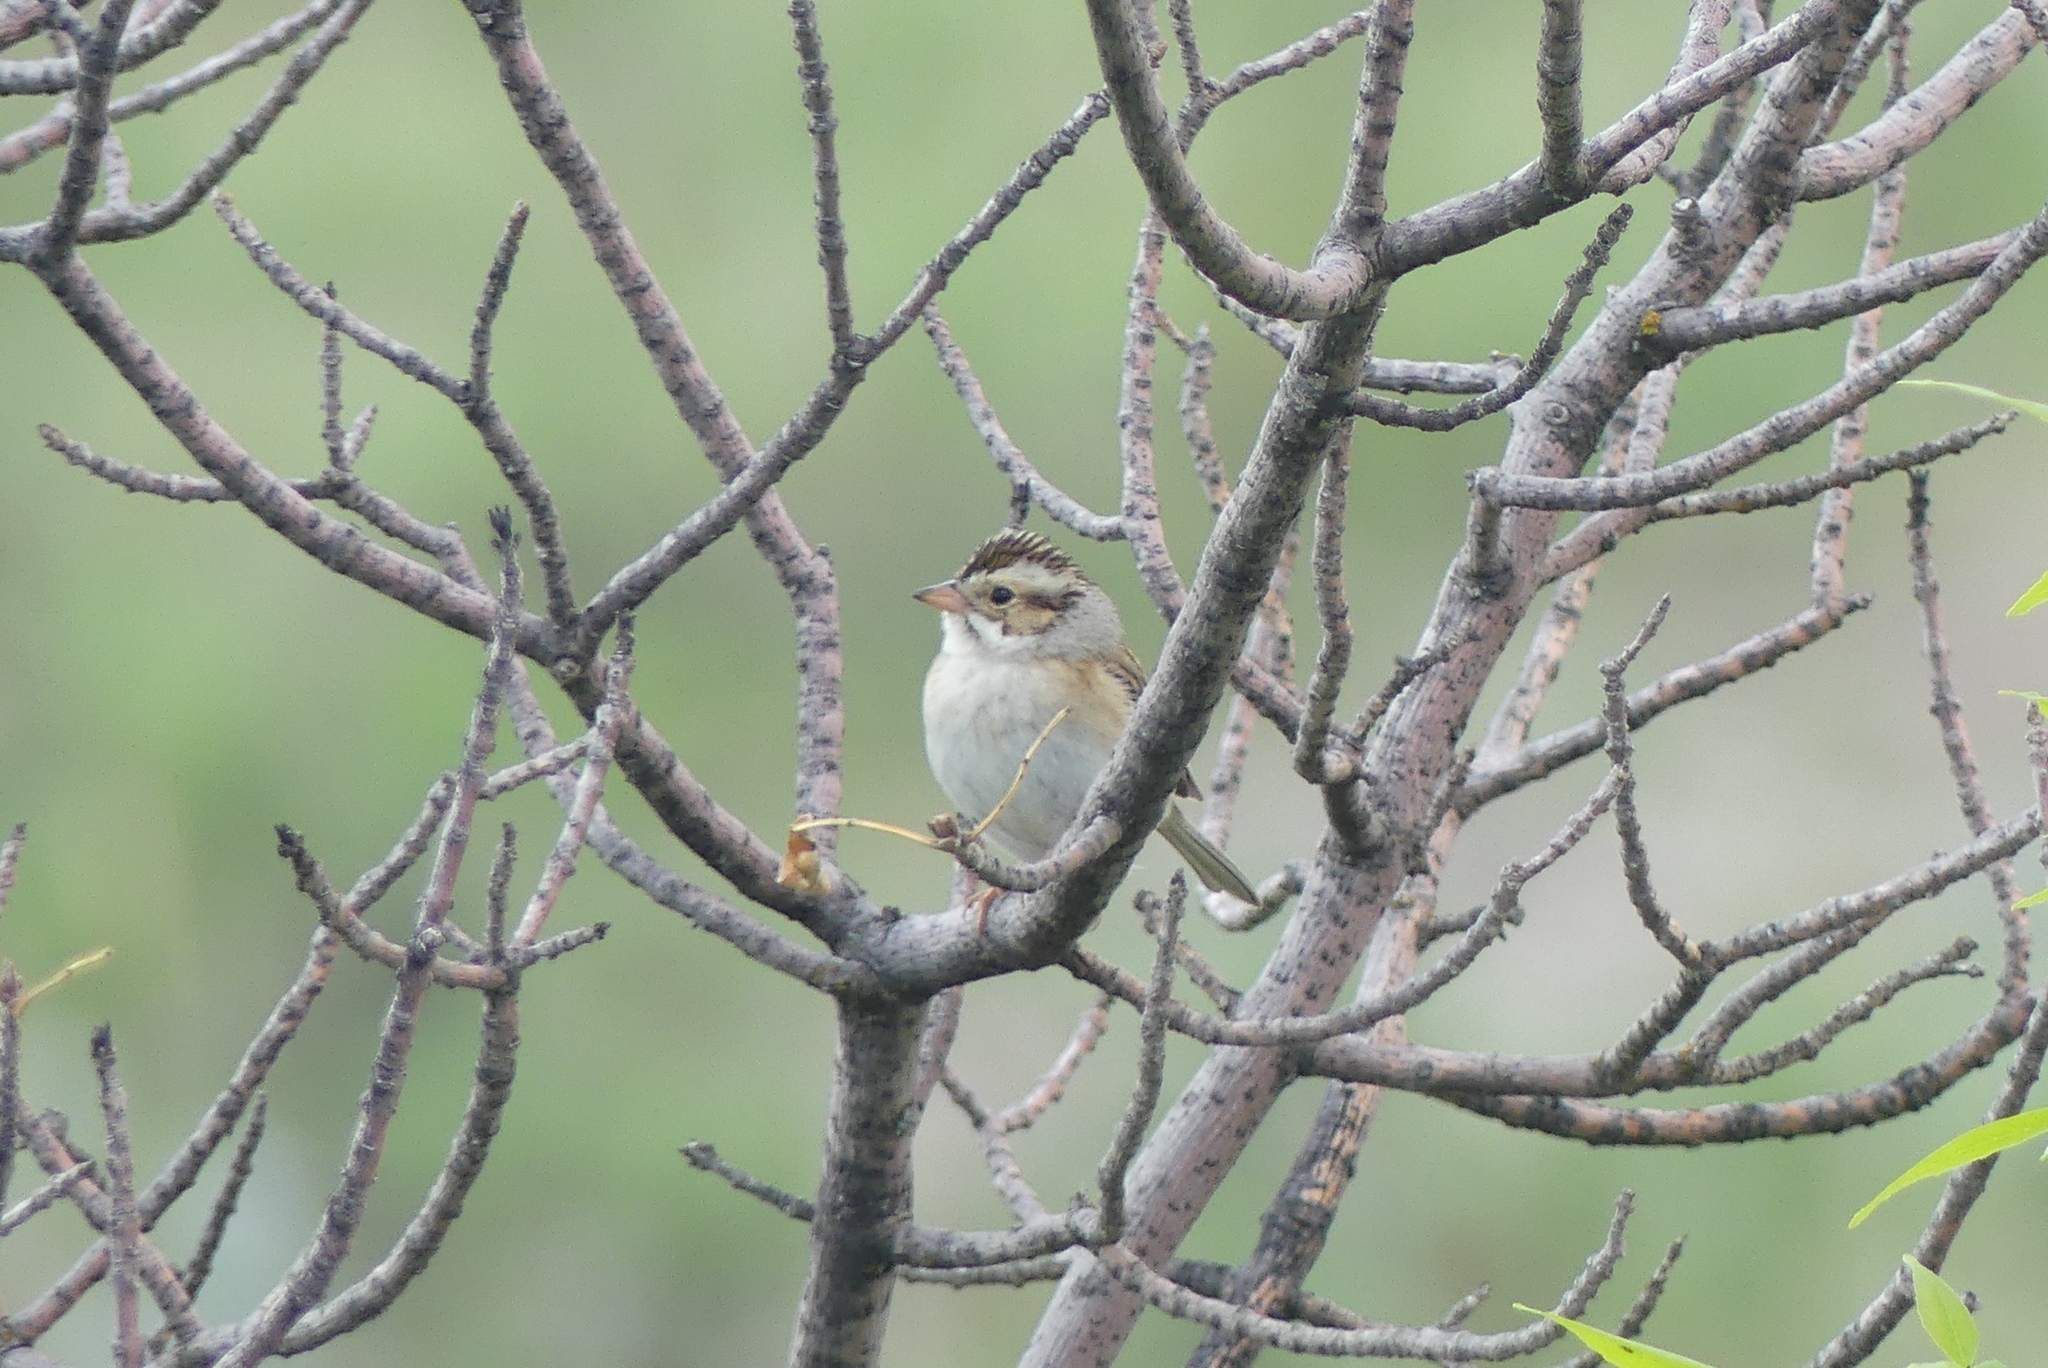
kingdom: Animalia
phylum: Chordata
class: Aves
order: Passeriformes
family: Passerellidae
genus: Spizella
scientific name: Spizella pallida
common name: Clay-colored sparrow
